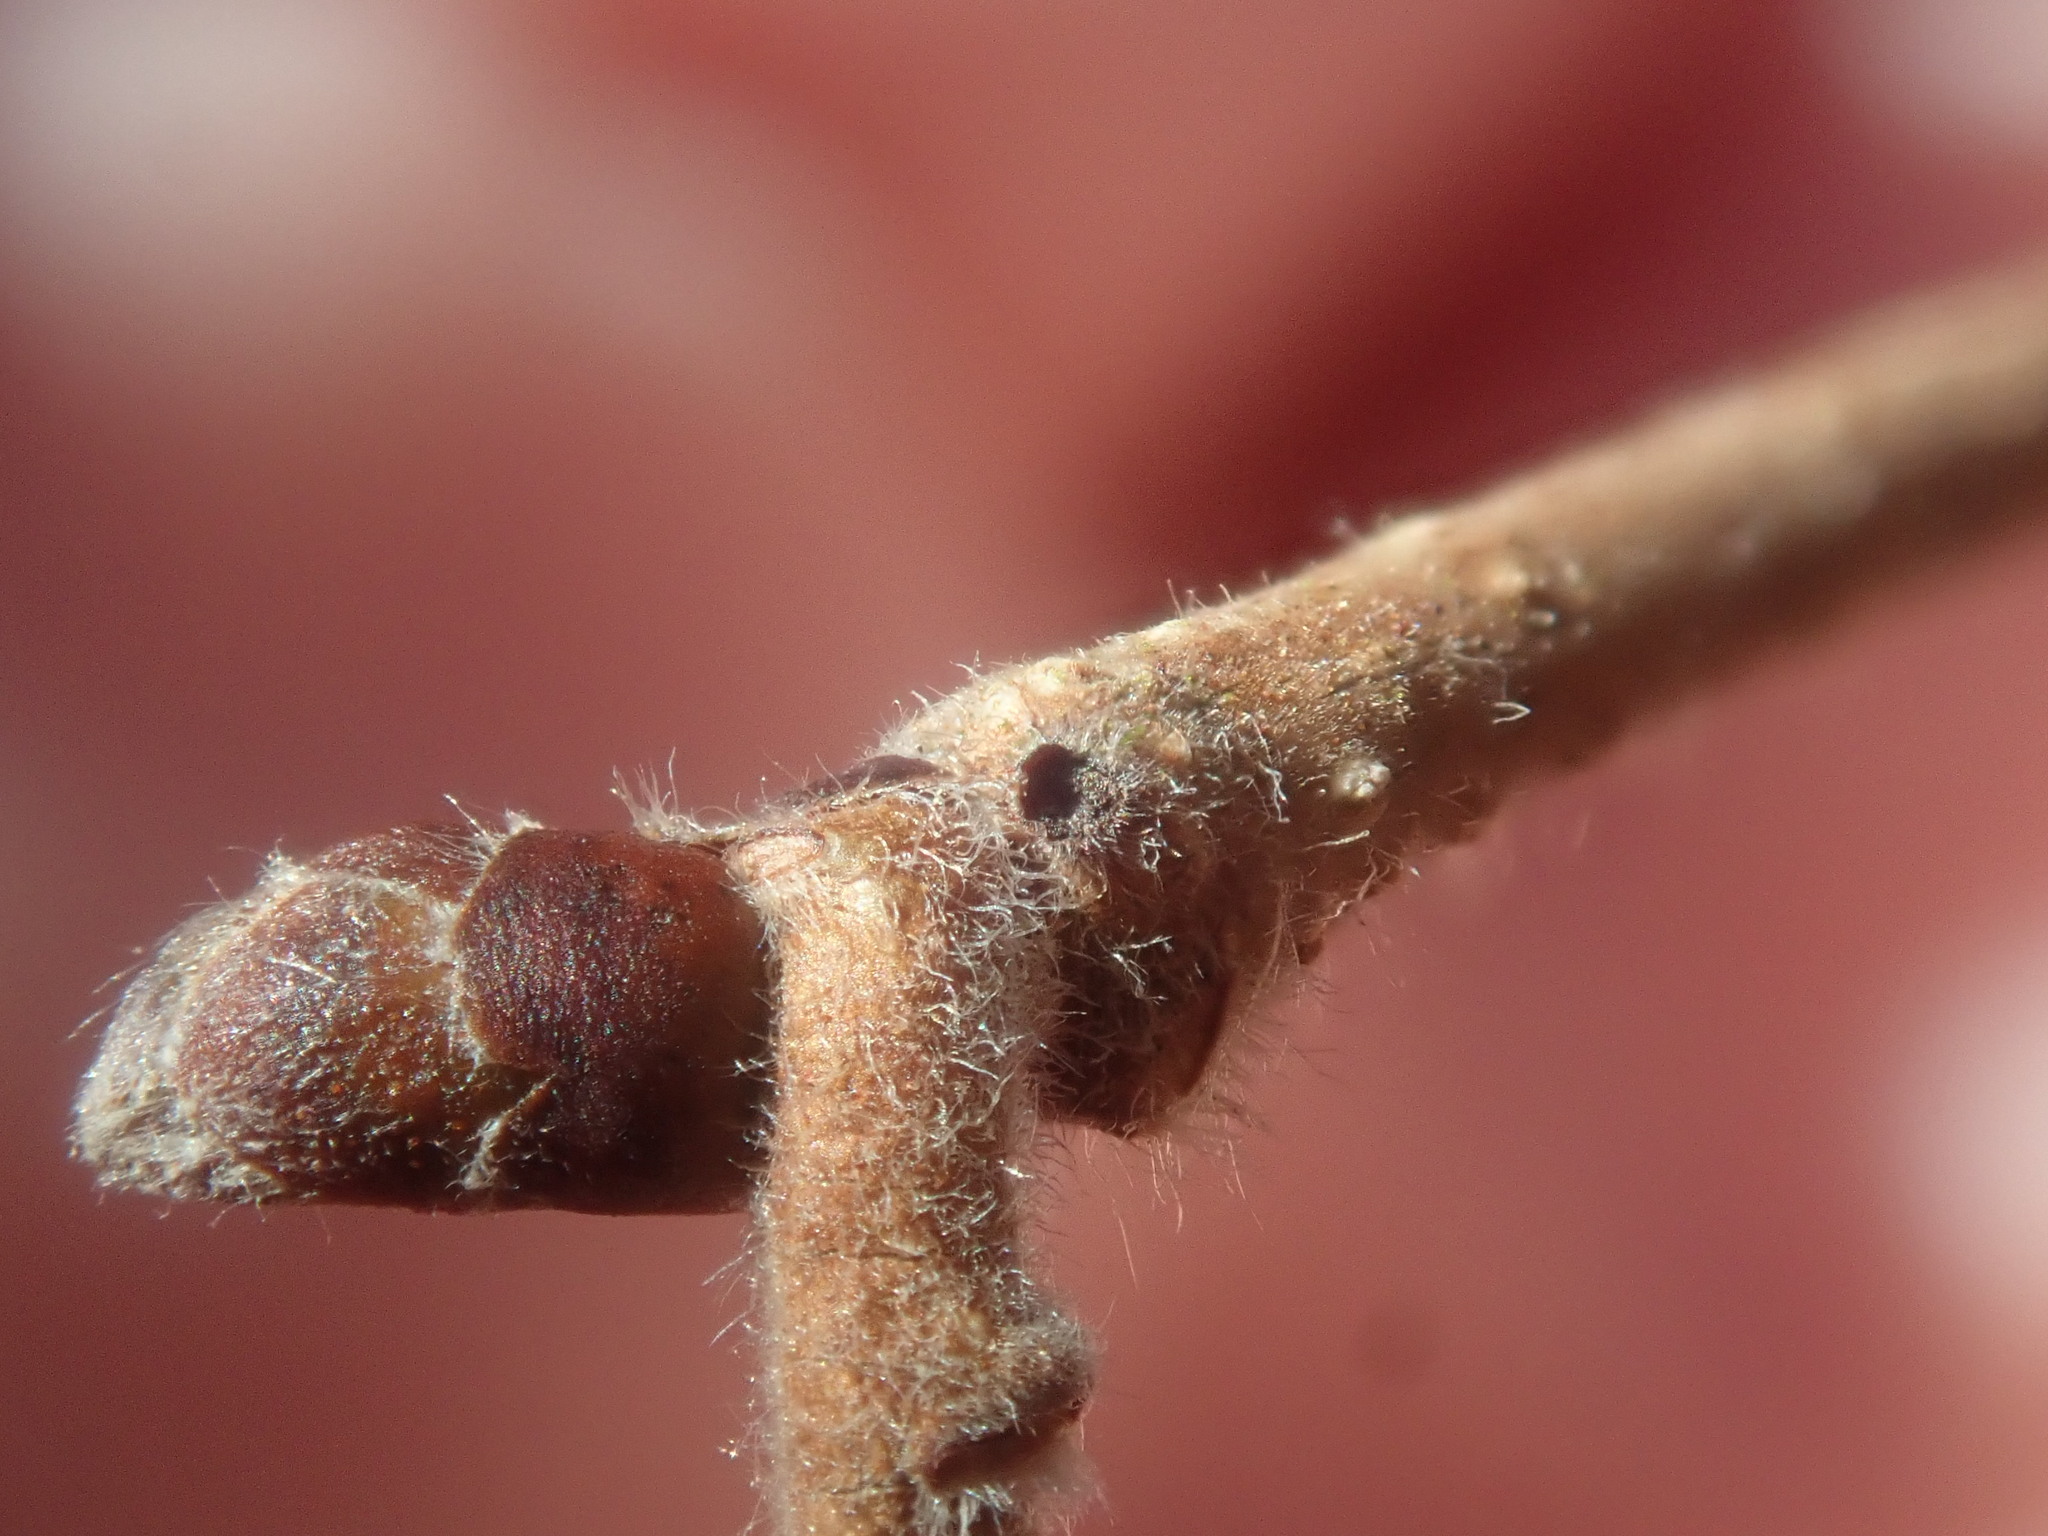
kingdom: Plantae
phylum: Tracheophyta
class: Magnoliopsida
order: Fagales
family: Betulaceae
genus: Corylus
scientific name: Corylus americana
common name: American hazel
